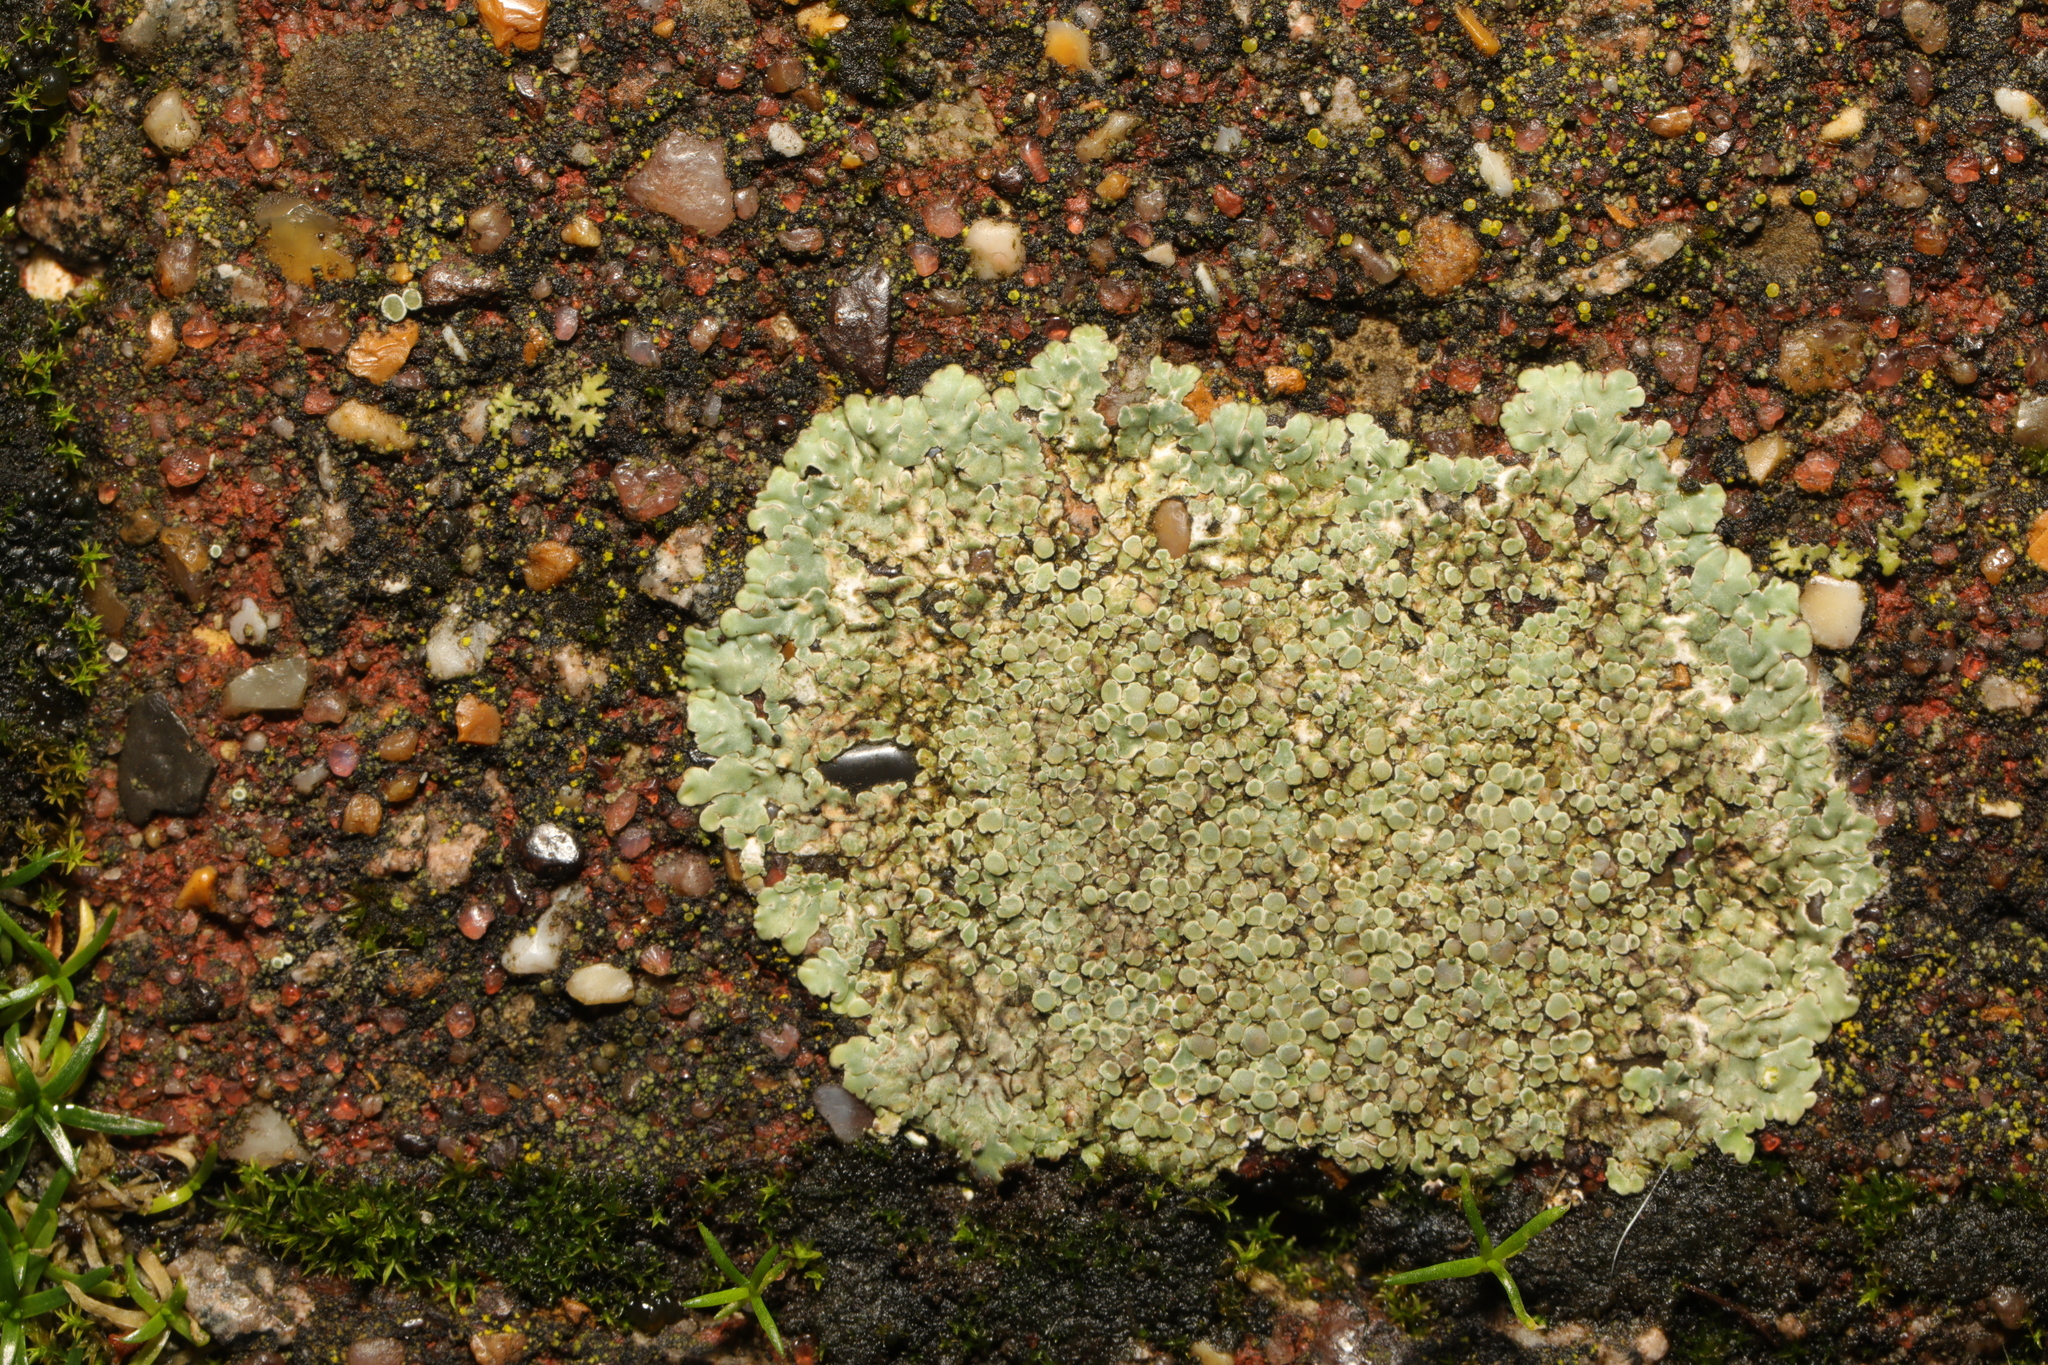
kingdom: Fungi
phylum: Ascomycota
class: Lecanoromycetes
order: Lecanorales
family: Lecanoraceae
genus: Protoparmeliopsis
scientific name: Protoparmeliopsis muralis
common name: Stonewall rim lichen
